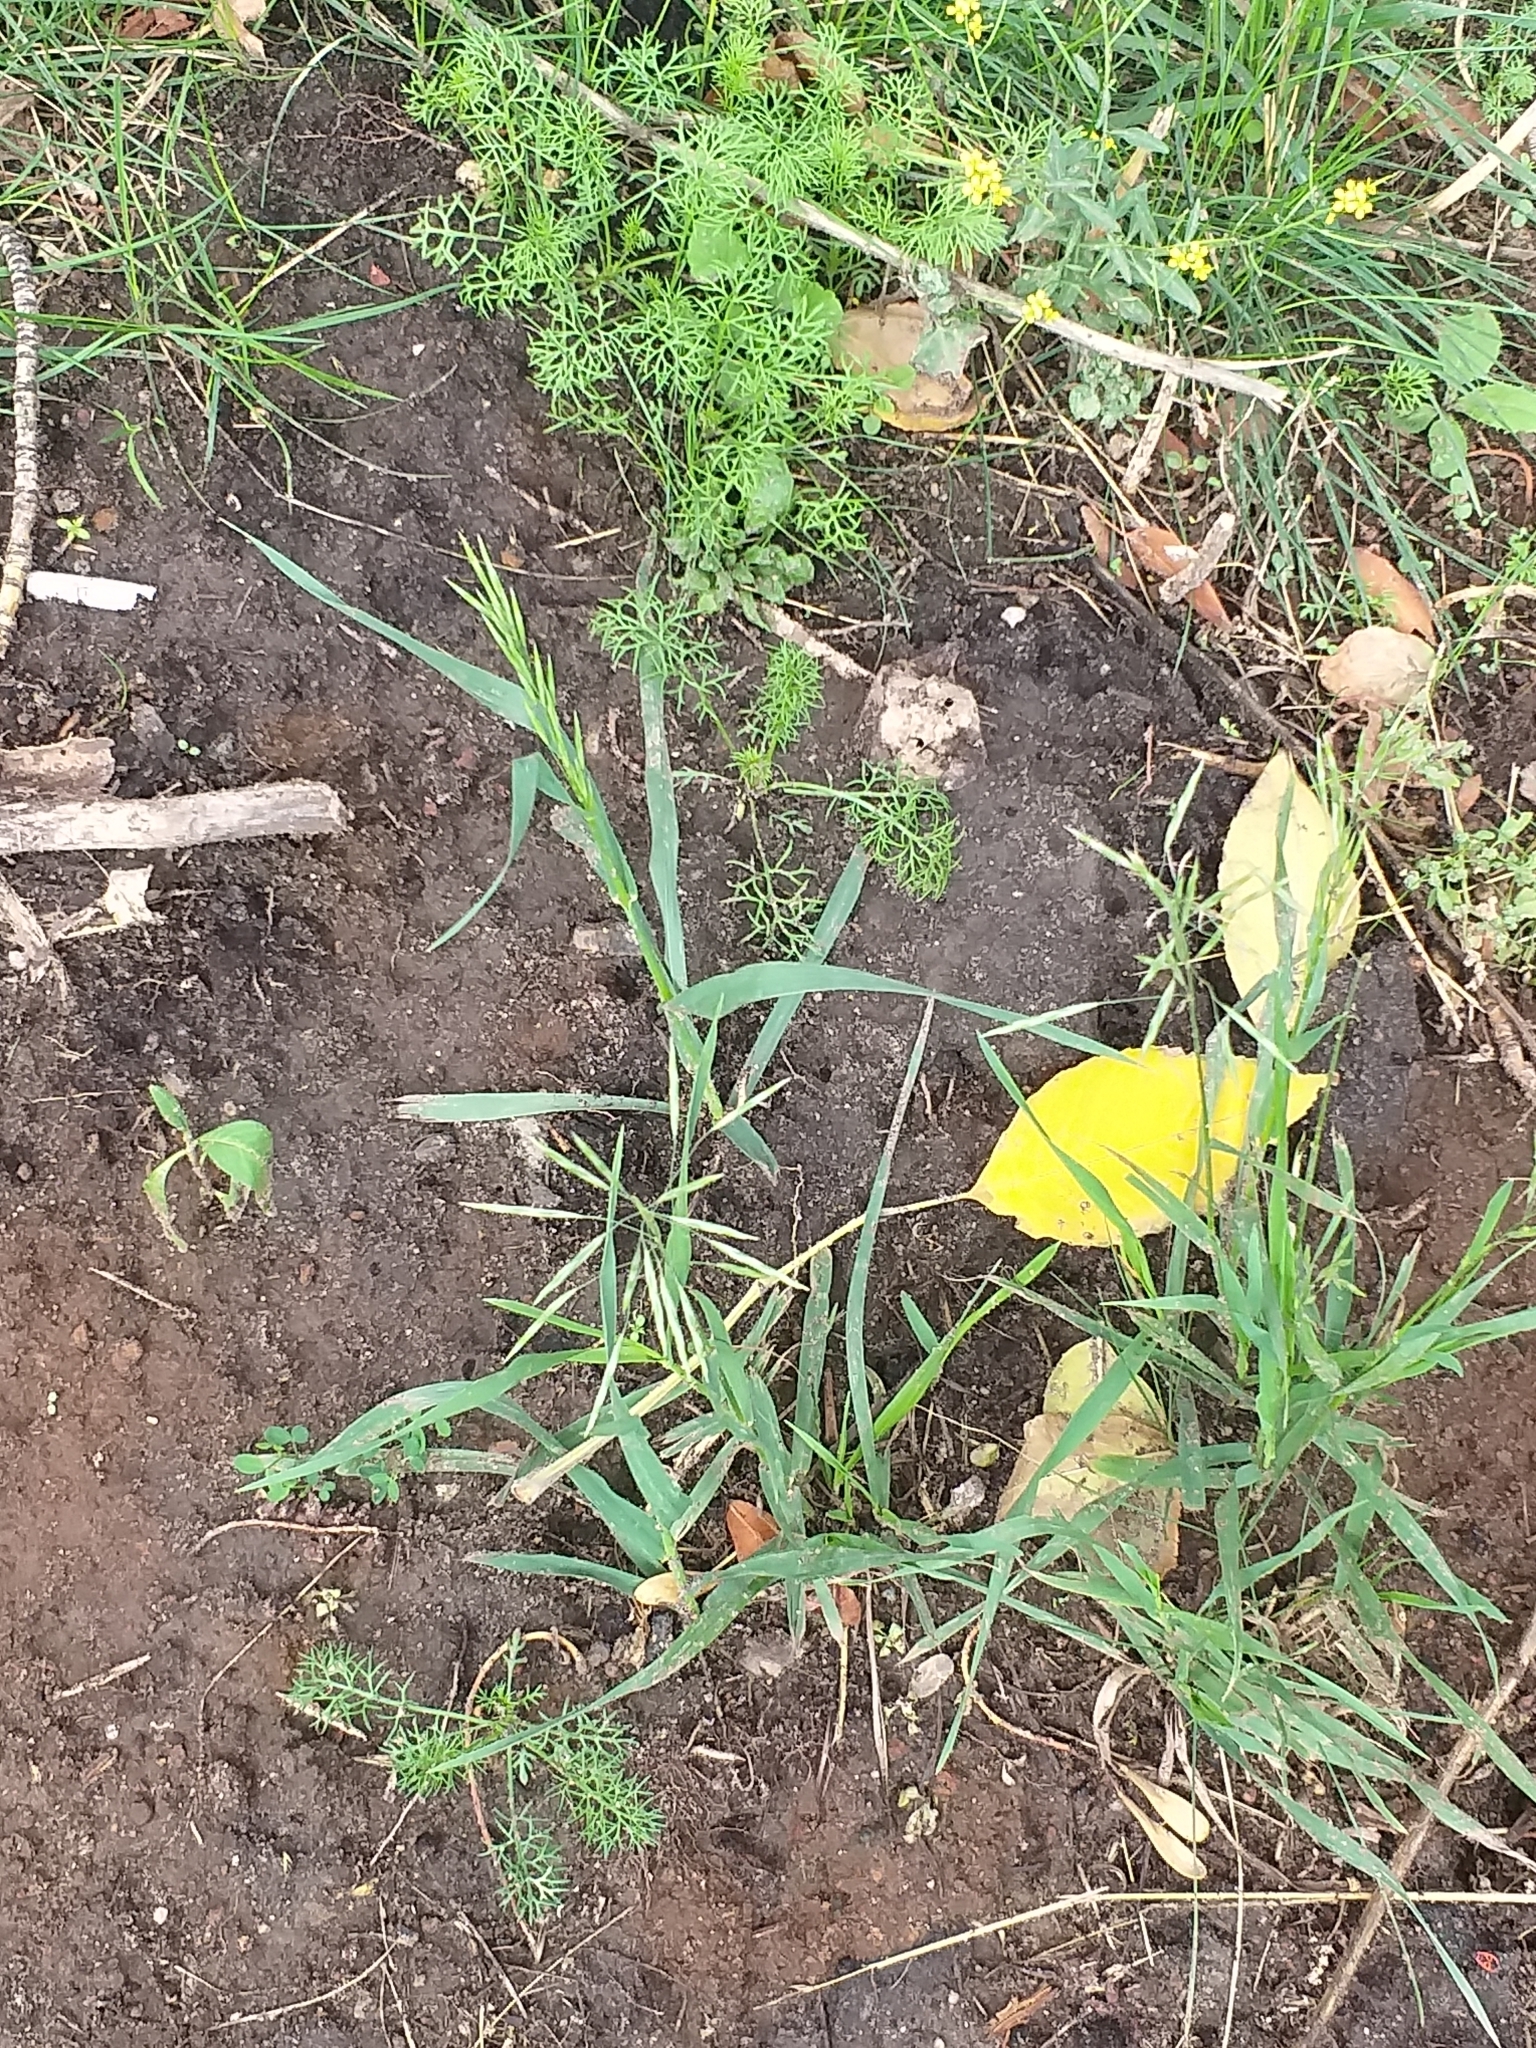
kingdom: Plantae
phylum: Tracheophyta
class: Liliopsida
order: Poales
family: Poaceae
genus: Bromus
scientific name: Bromus inermis
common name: Smooth brome
